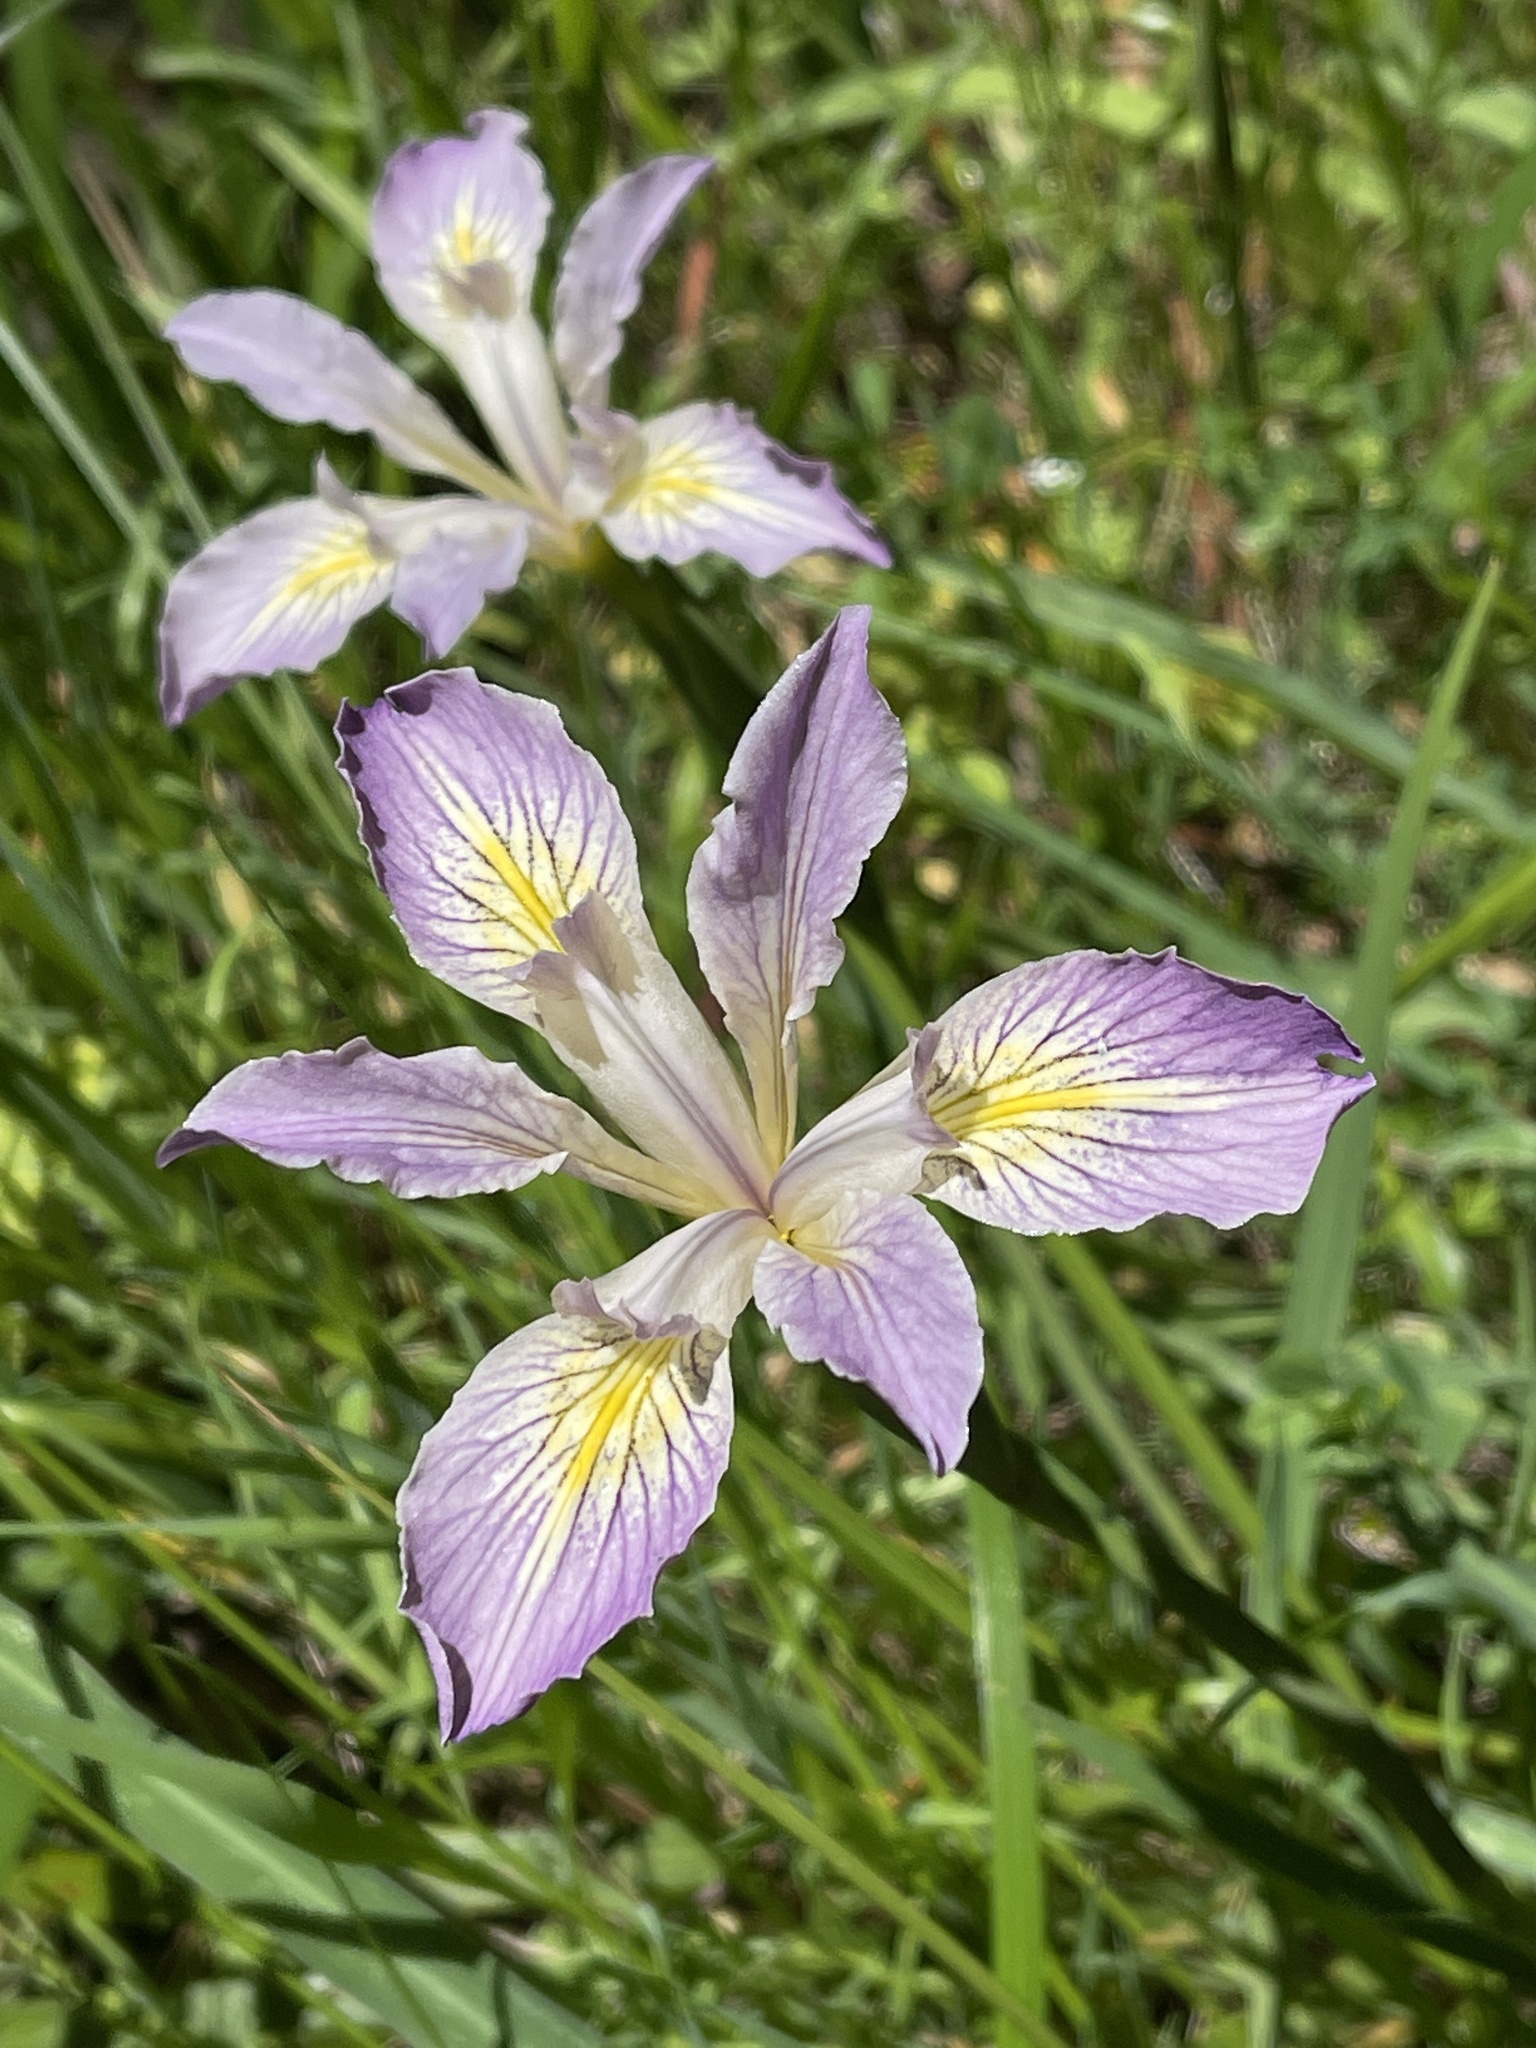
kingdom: Plantae
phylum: Tracheophyta
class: Liliopsida
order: Asparagales
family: Iridaceae
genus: Iris
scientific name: Iris douglasiana
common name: Marin iris
